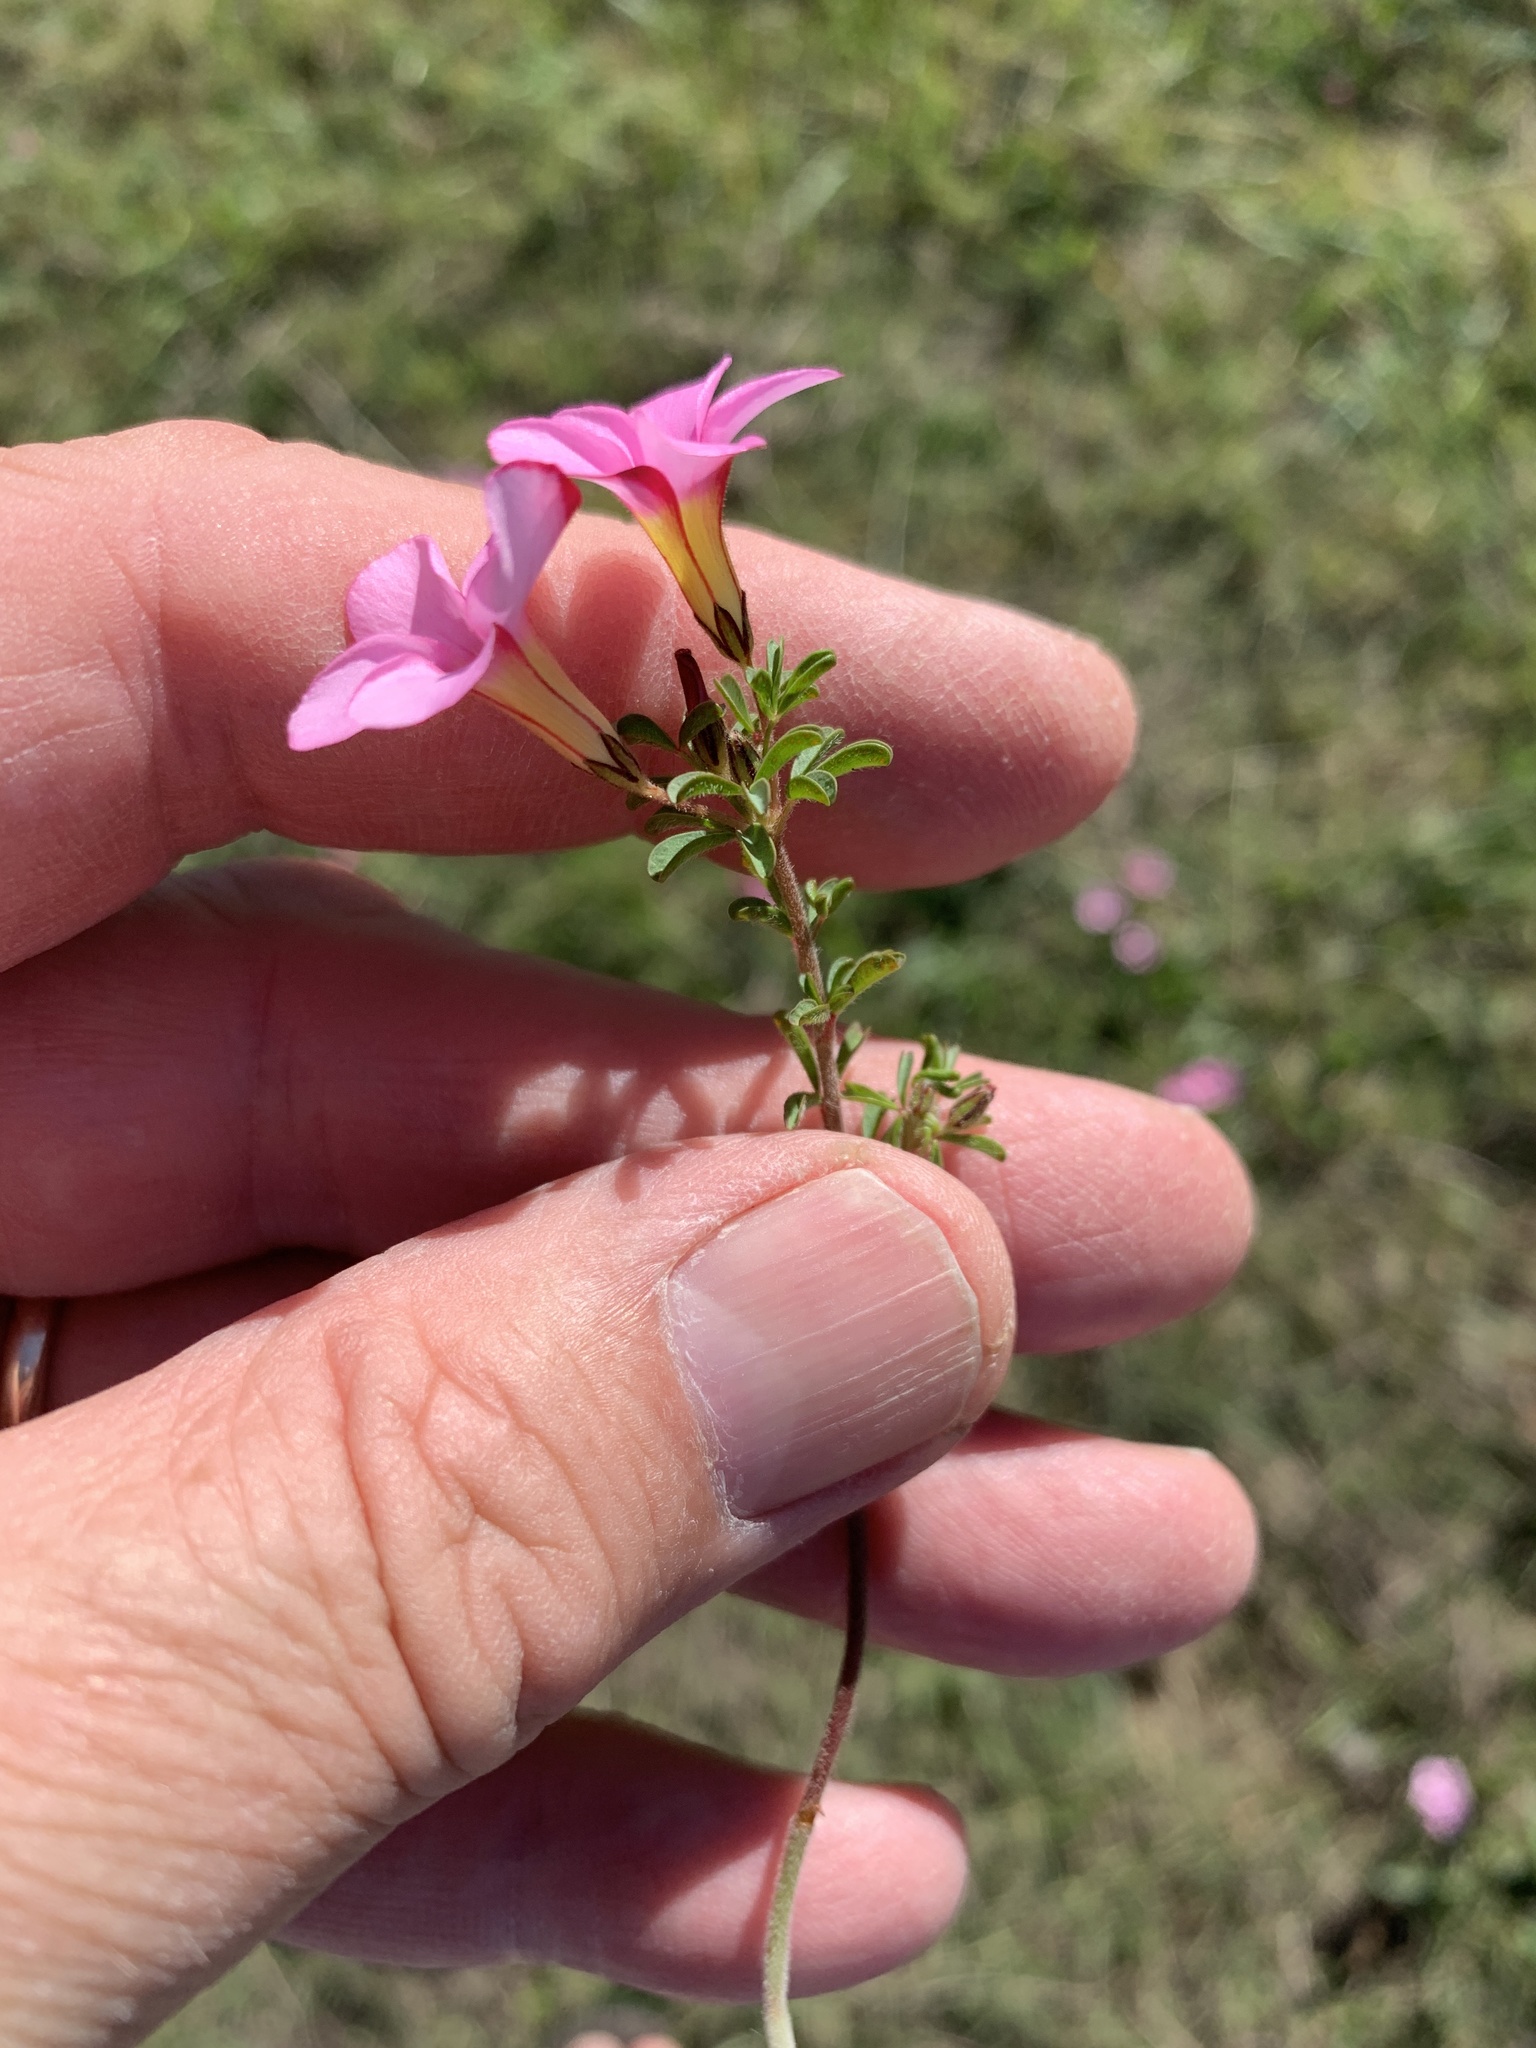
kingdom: Plantae
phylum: Tracheophyta
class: Magnoliopsida
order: Oxalidales
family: Oxalidaceae
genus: Oxalis
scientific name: Oxalis multicaulis
